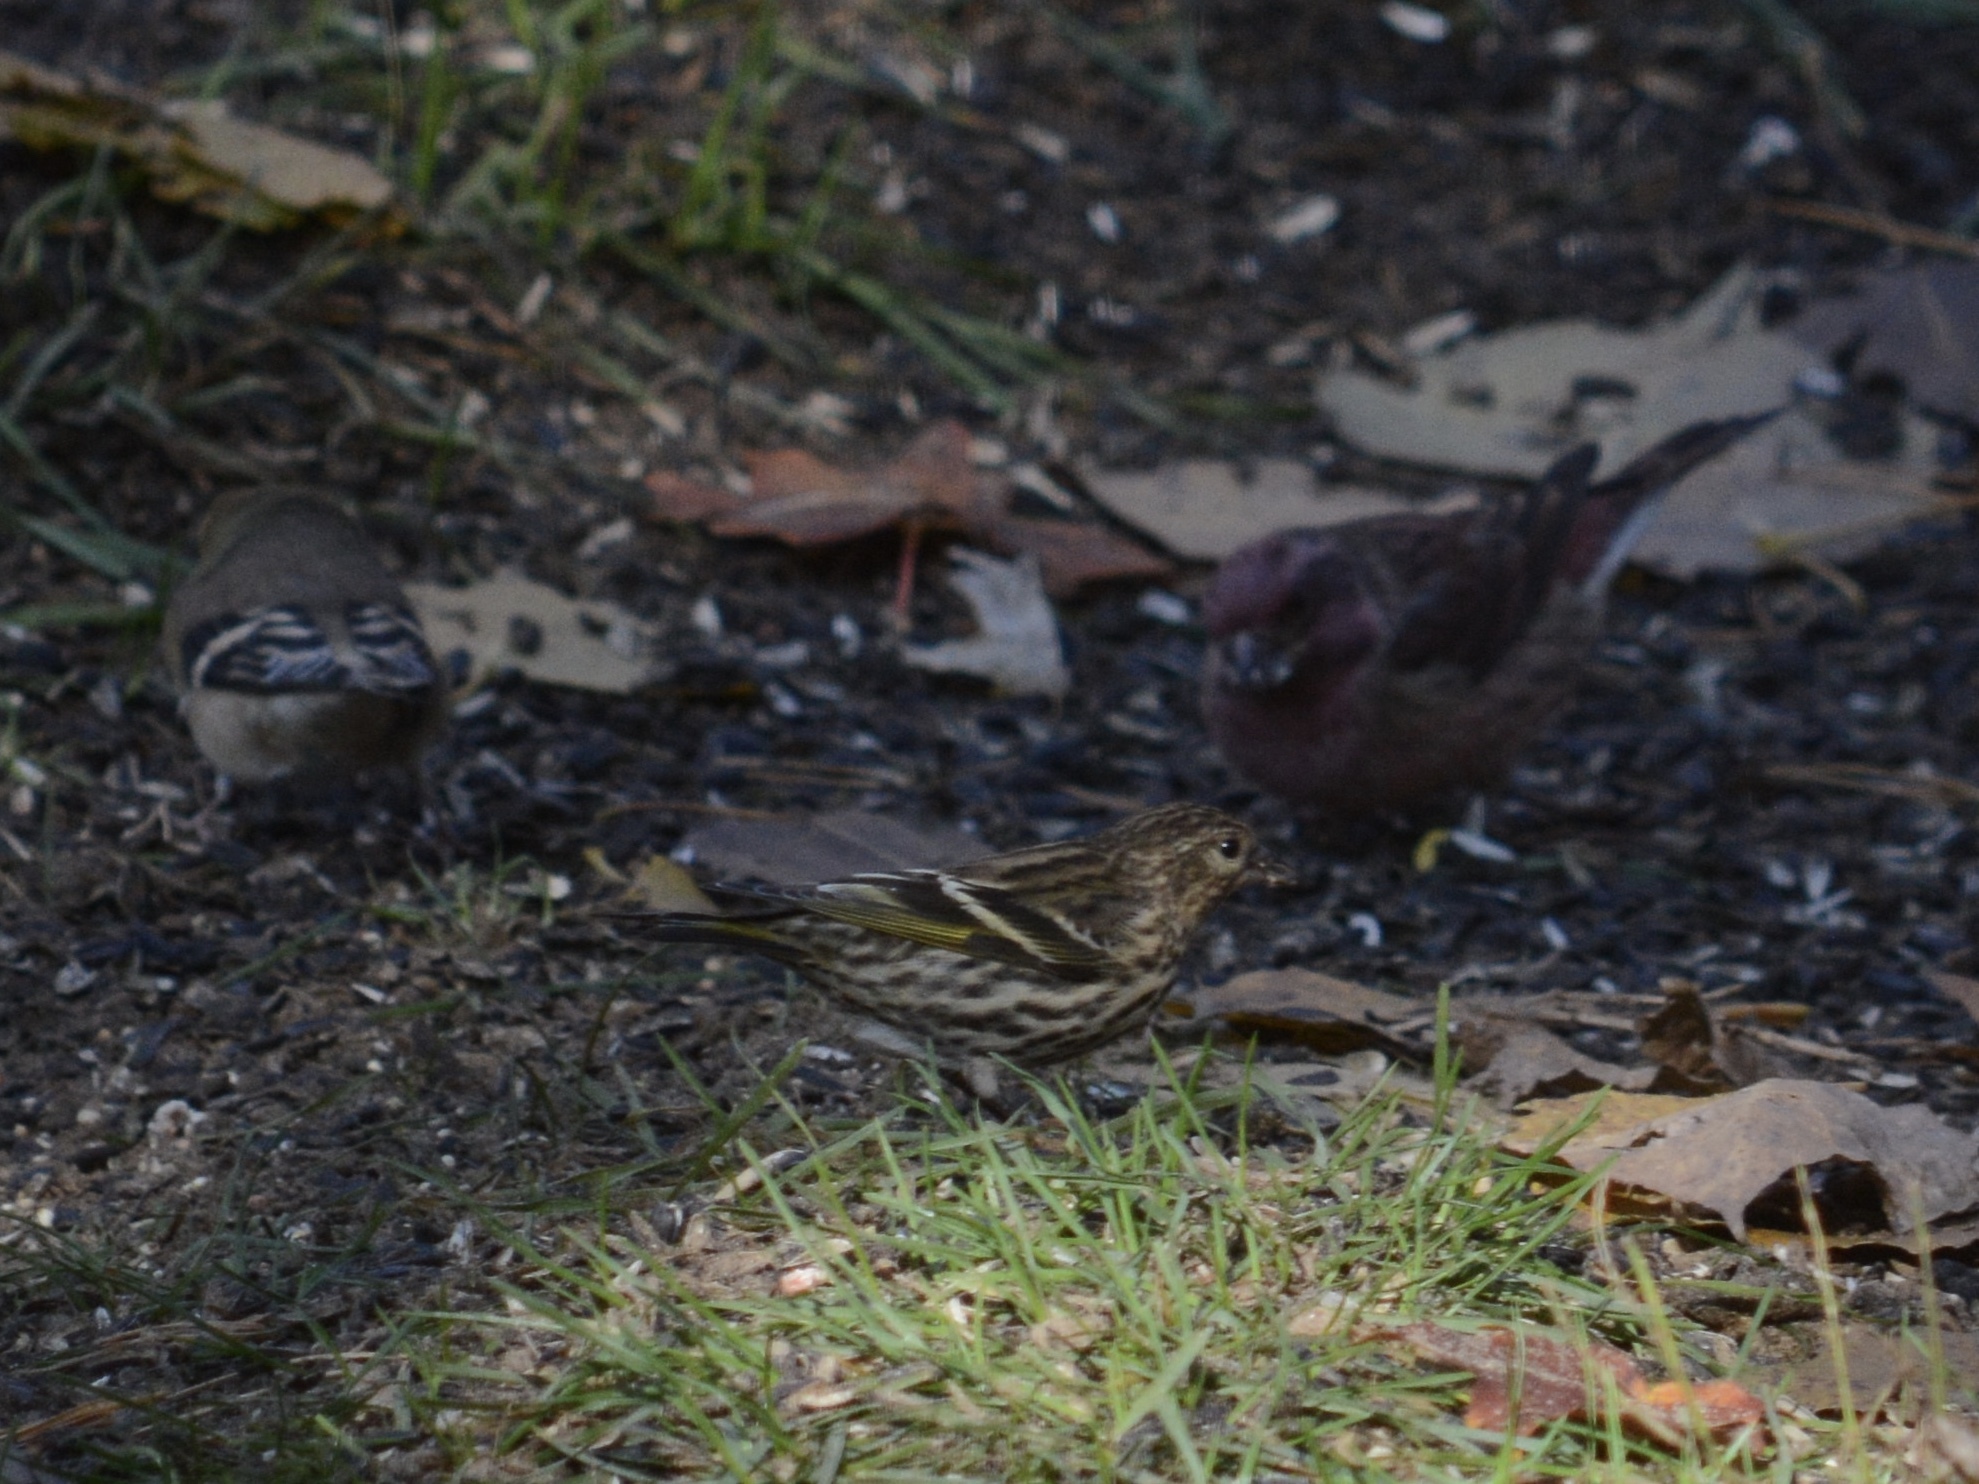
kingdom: Animalia
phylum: Chordata
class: Aves
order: Passeriformes
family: Fringillidae
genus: Spinus
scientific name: Spinus pinus
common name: Pine siskin
